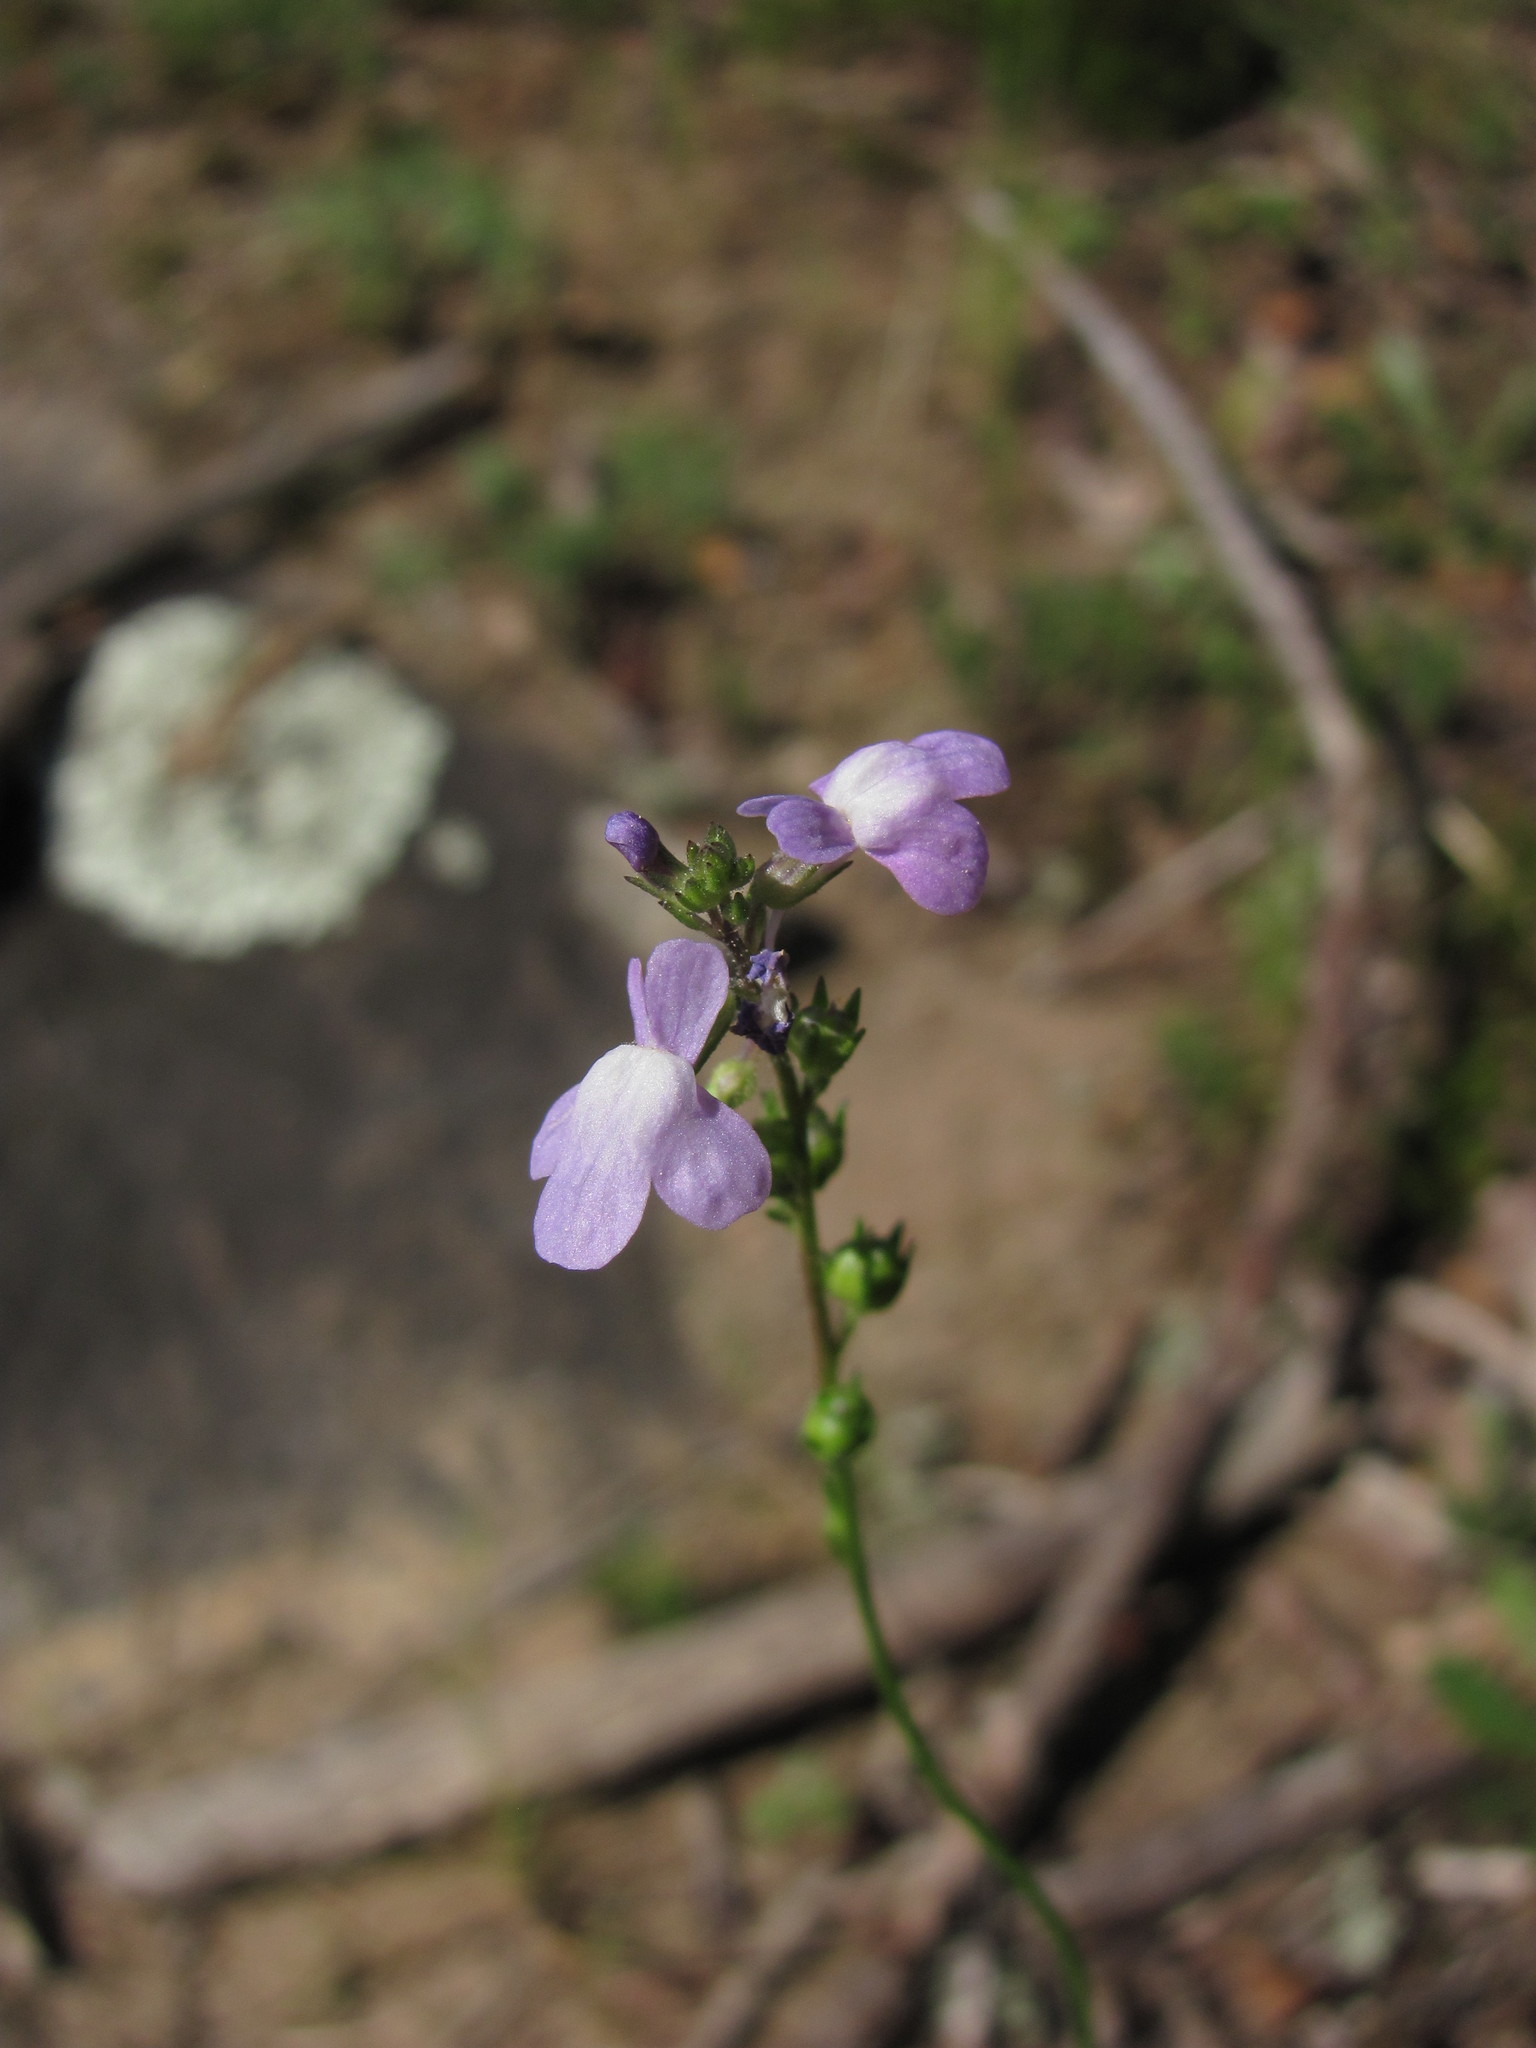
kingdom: Plantae
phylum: Tracheophyta
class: Magnoliopsida
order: Lamiales
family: Plantaginaceae
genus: Nuttallanthus
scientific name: Nuttallanthus canadensis
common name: Blue toadflax
